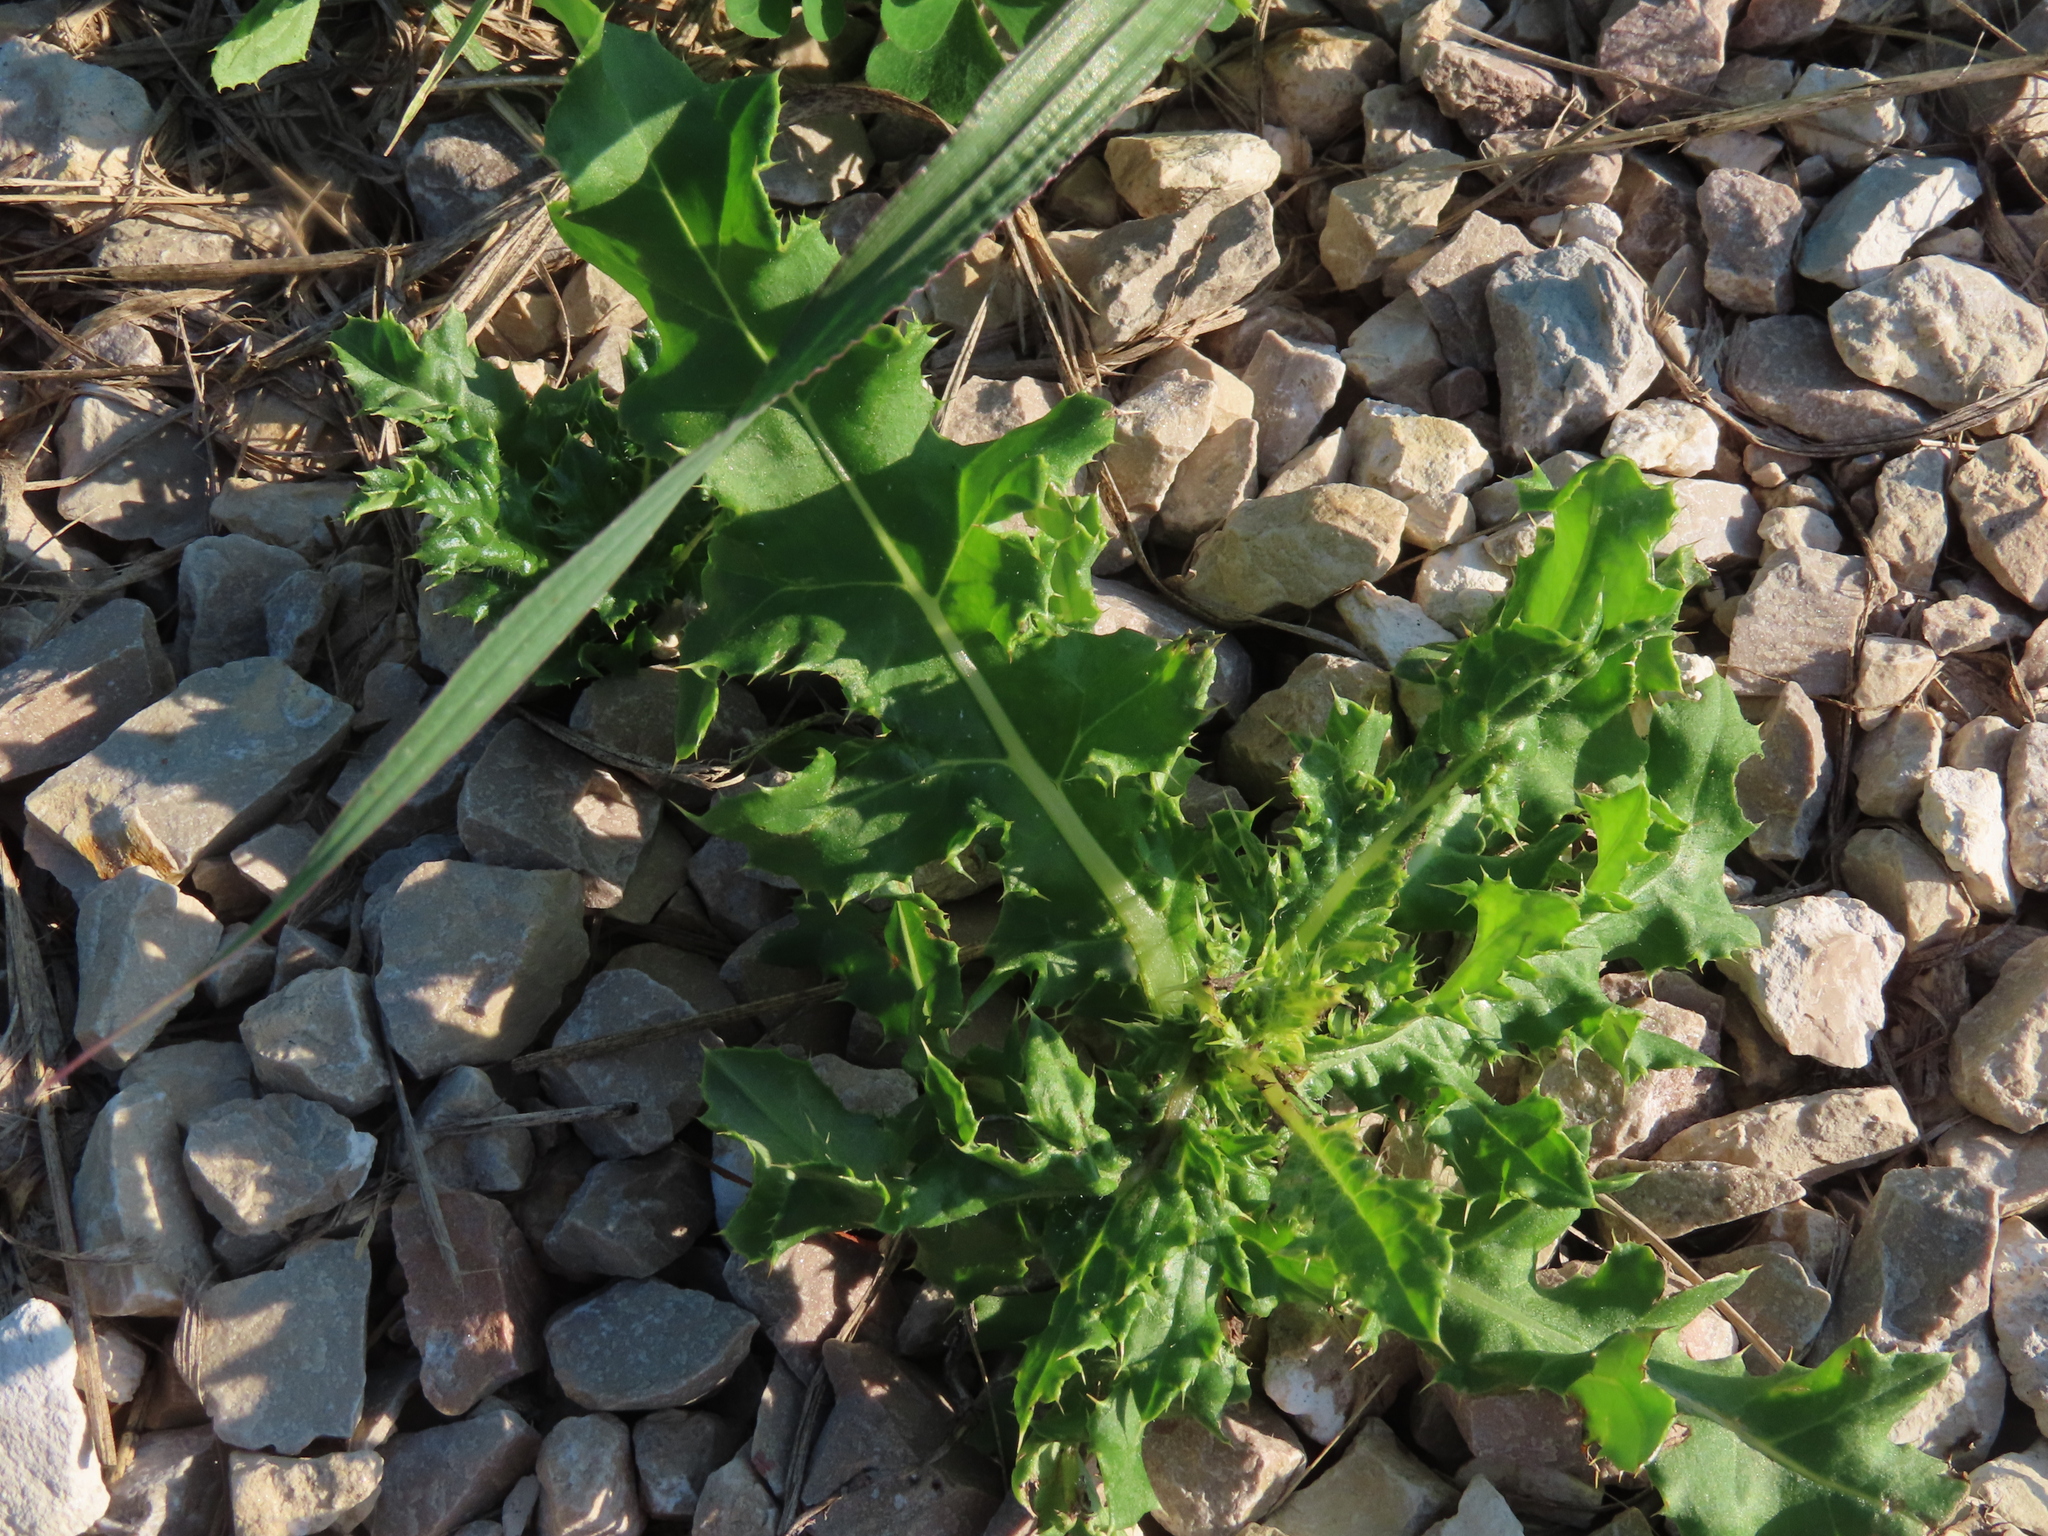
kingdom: Plantae
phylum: Tracheophyta
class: Magnoliopsida
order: Asterales
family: Asteraceae
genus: Cirsium
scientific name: Cirsium arvense
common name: Creeping thistle
